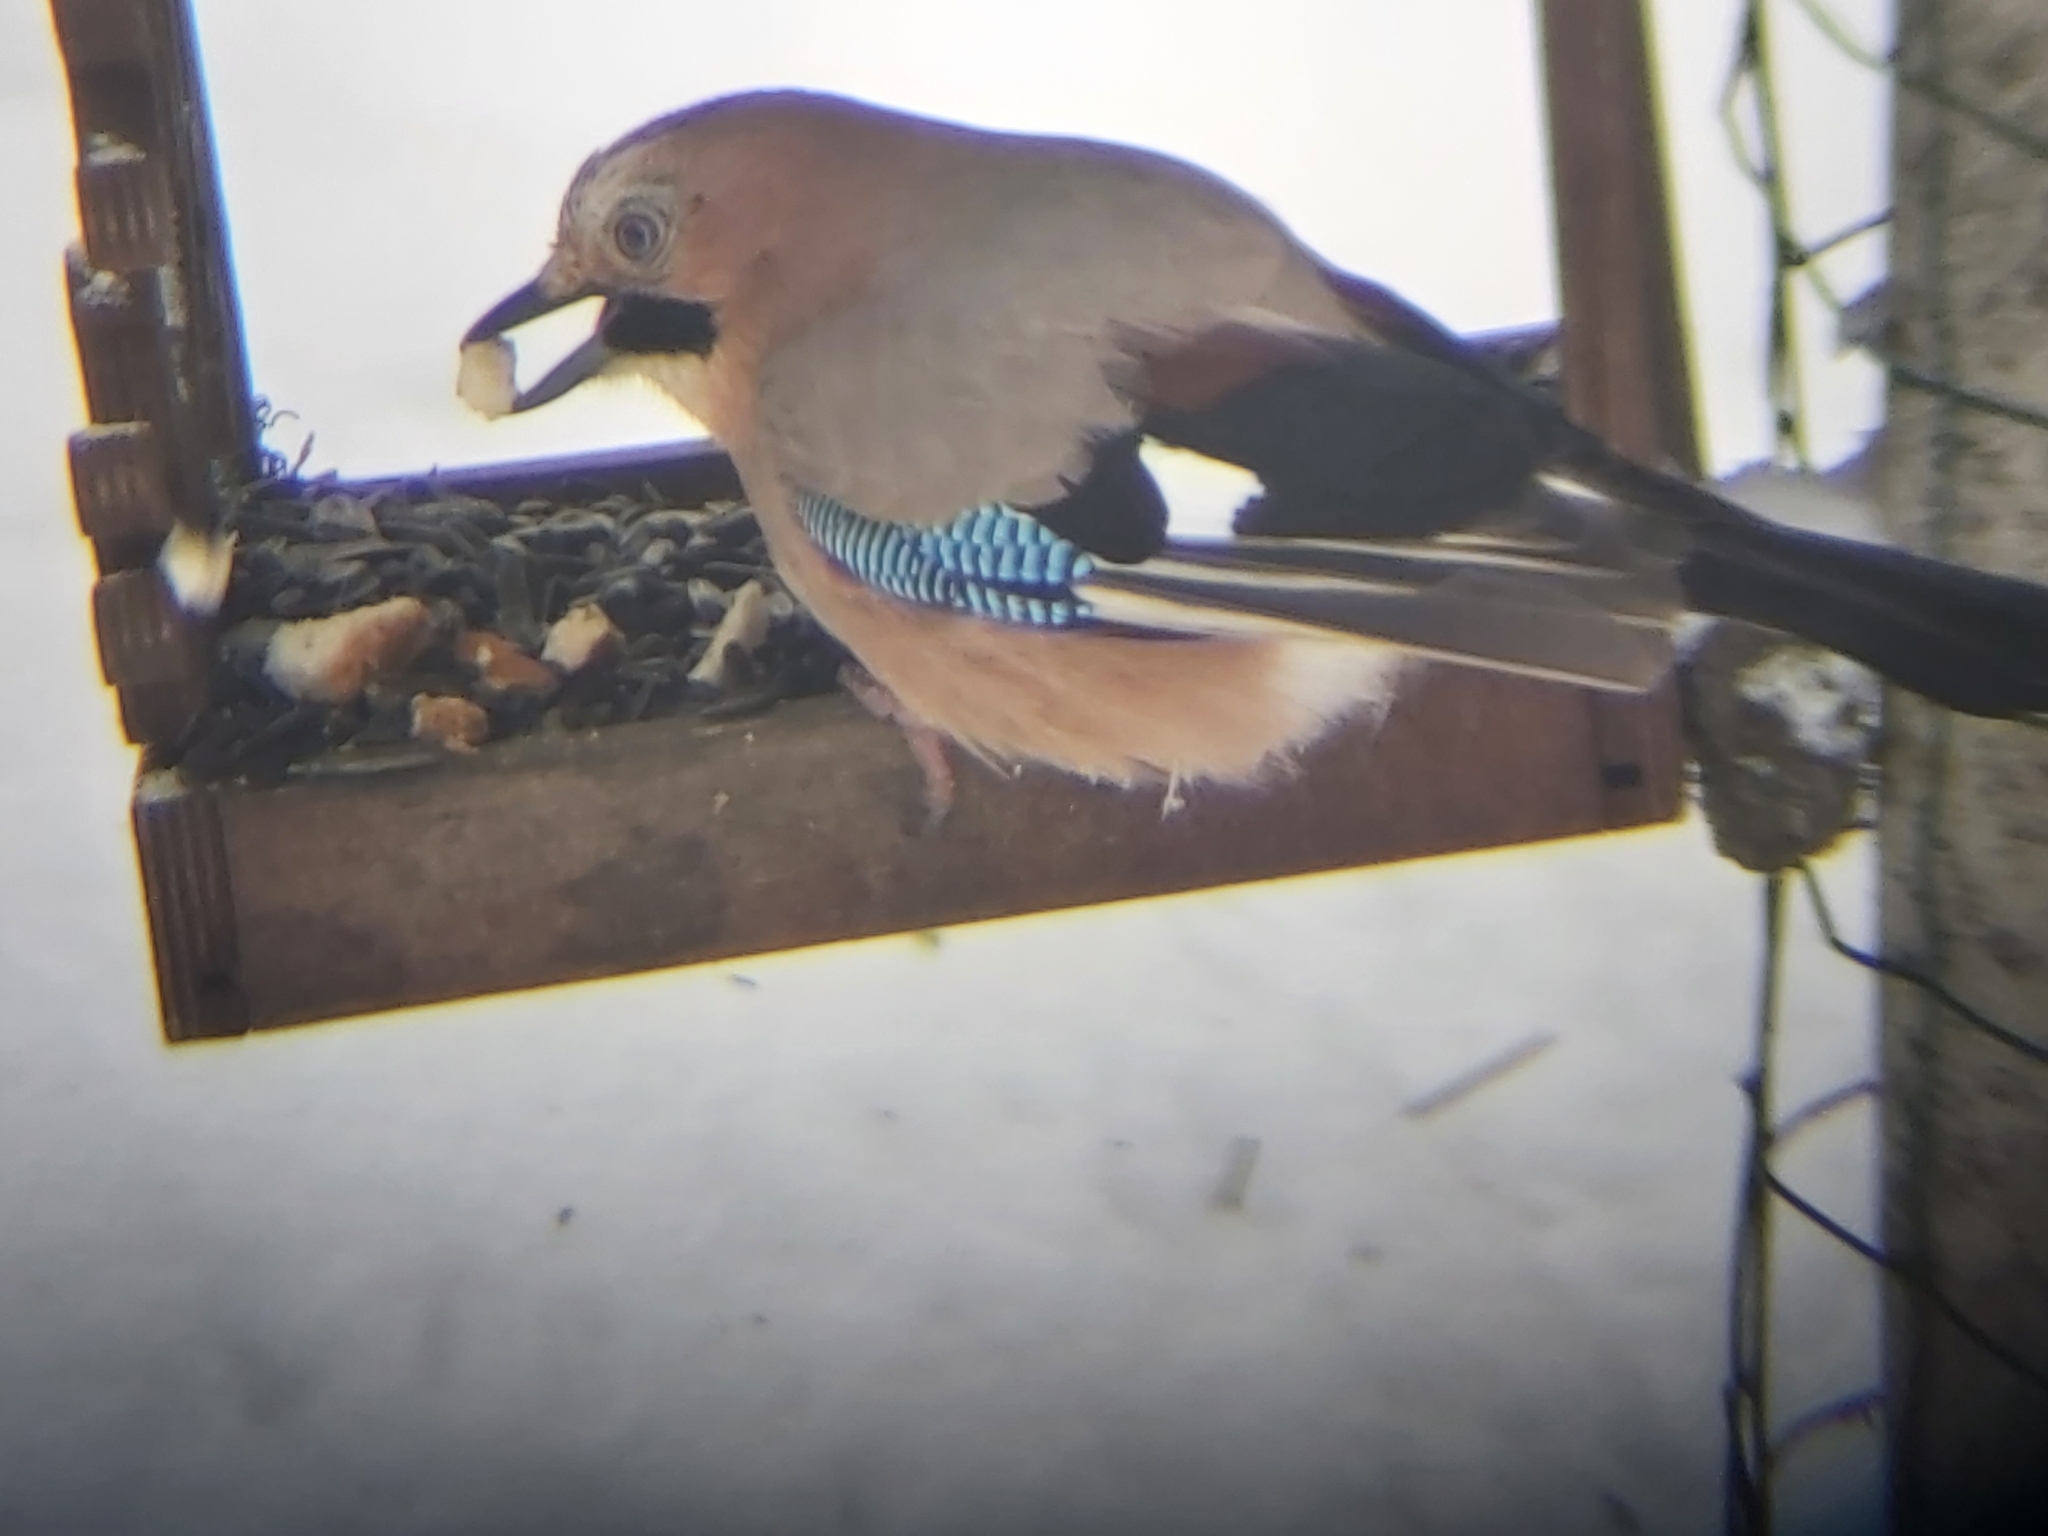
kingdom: Animalia
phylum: Chordata
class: Aves
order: Passeriformes
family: Corvidae
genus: Garrulus
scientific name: Garrulus glandarius
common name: Eurasian jay
